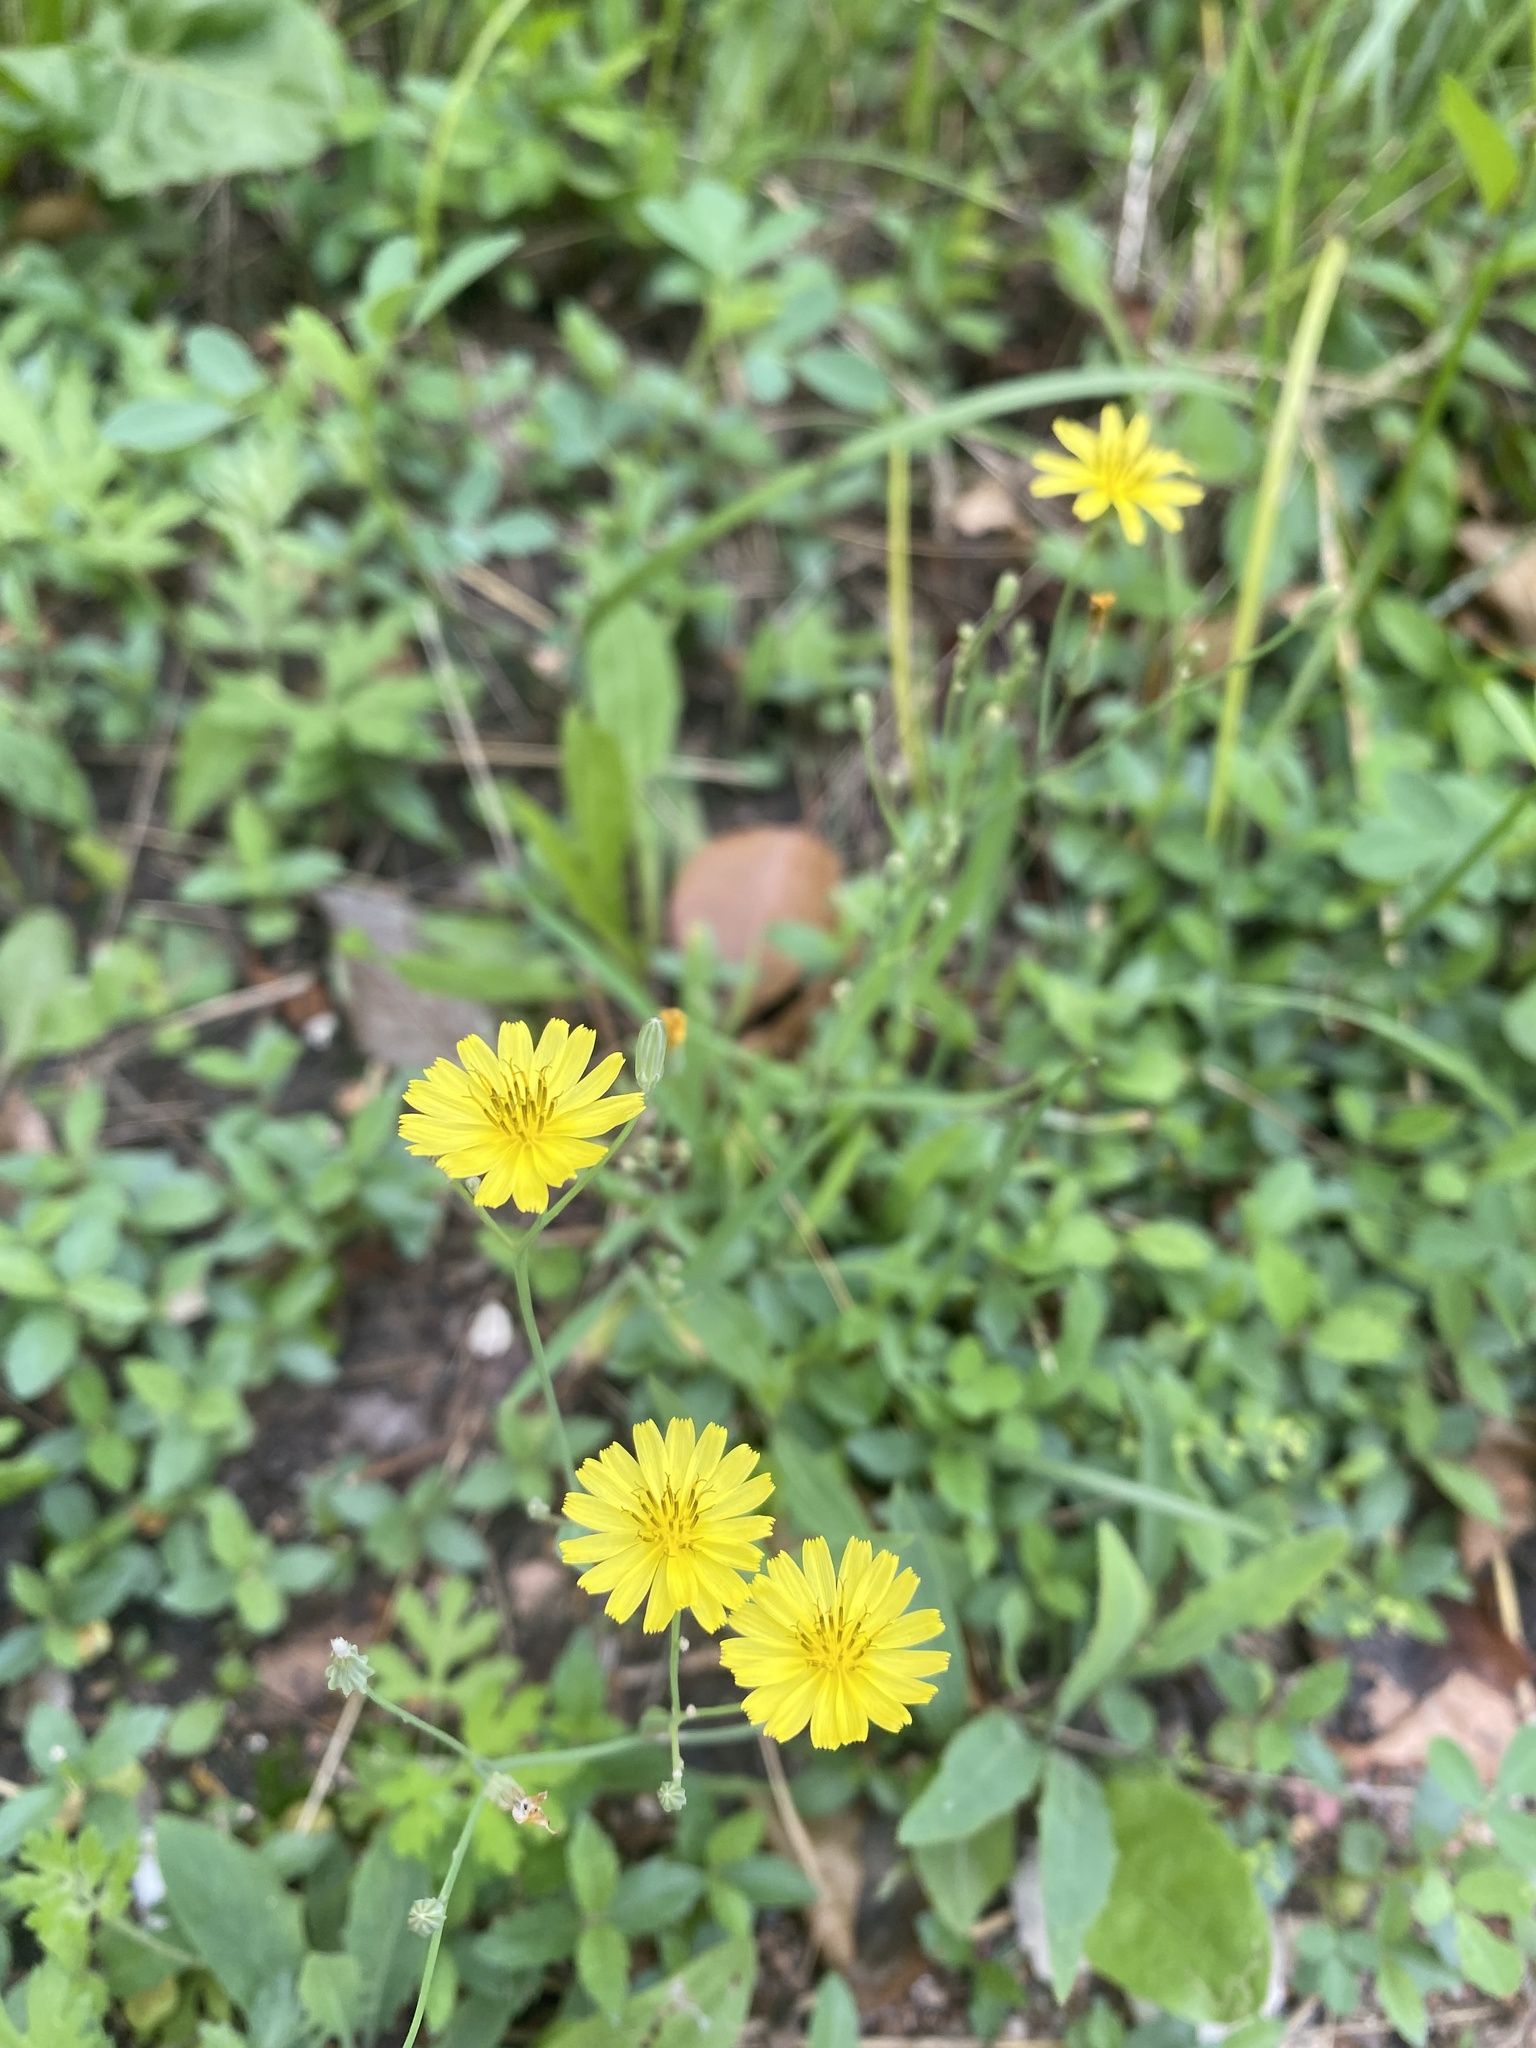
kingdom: Plantae
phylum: Tracheophyta
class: Magnoliopsida
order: Asterales
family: Asteraceae
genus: Ixeris
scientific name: Ixeris chinensis
